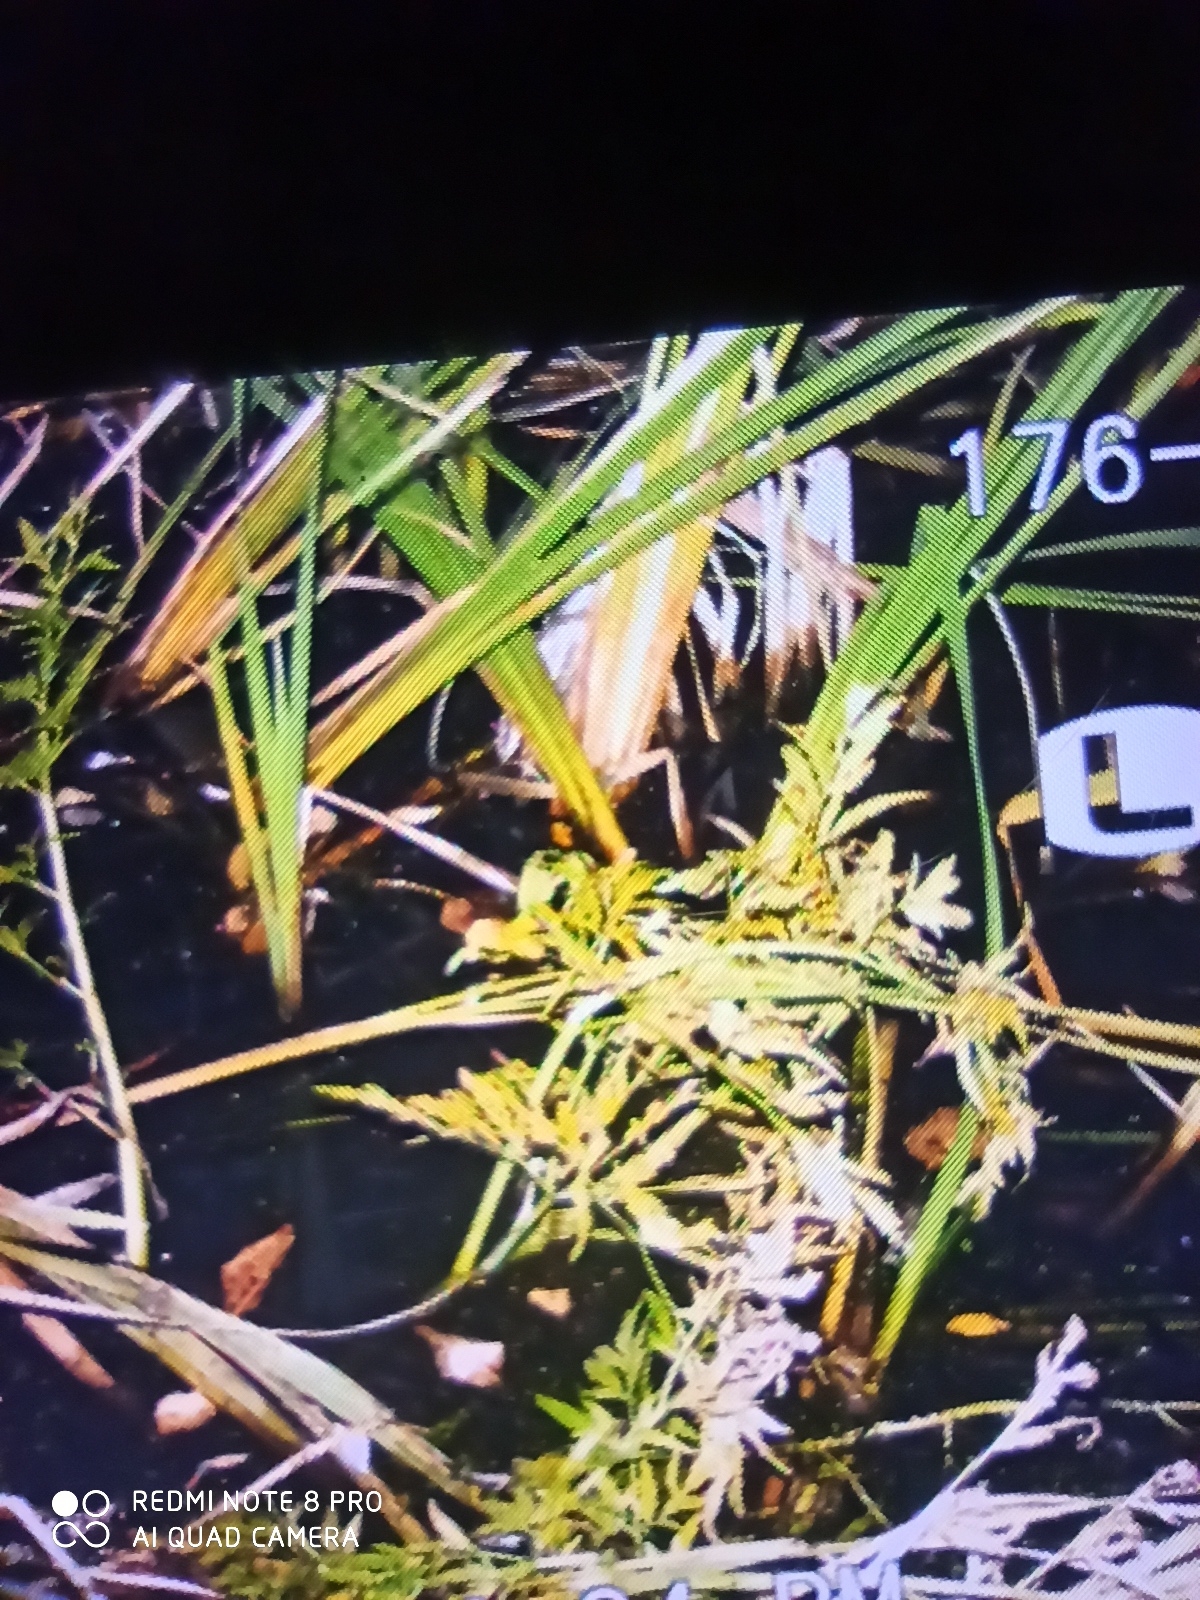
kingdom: Plantae
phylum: Tracheophyta
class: Magnoliopsida
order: Apiales
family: Apiaceae
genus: Cicuta
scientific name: Cicuta virosa
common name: Cowbane
